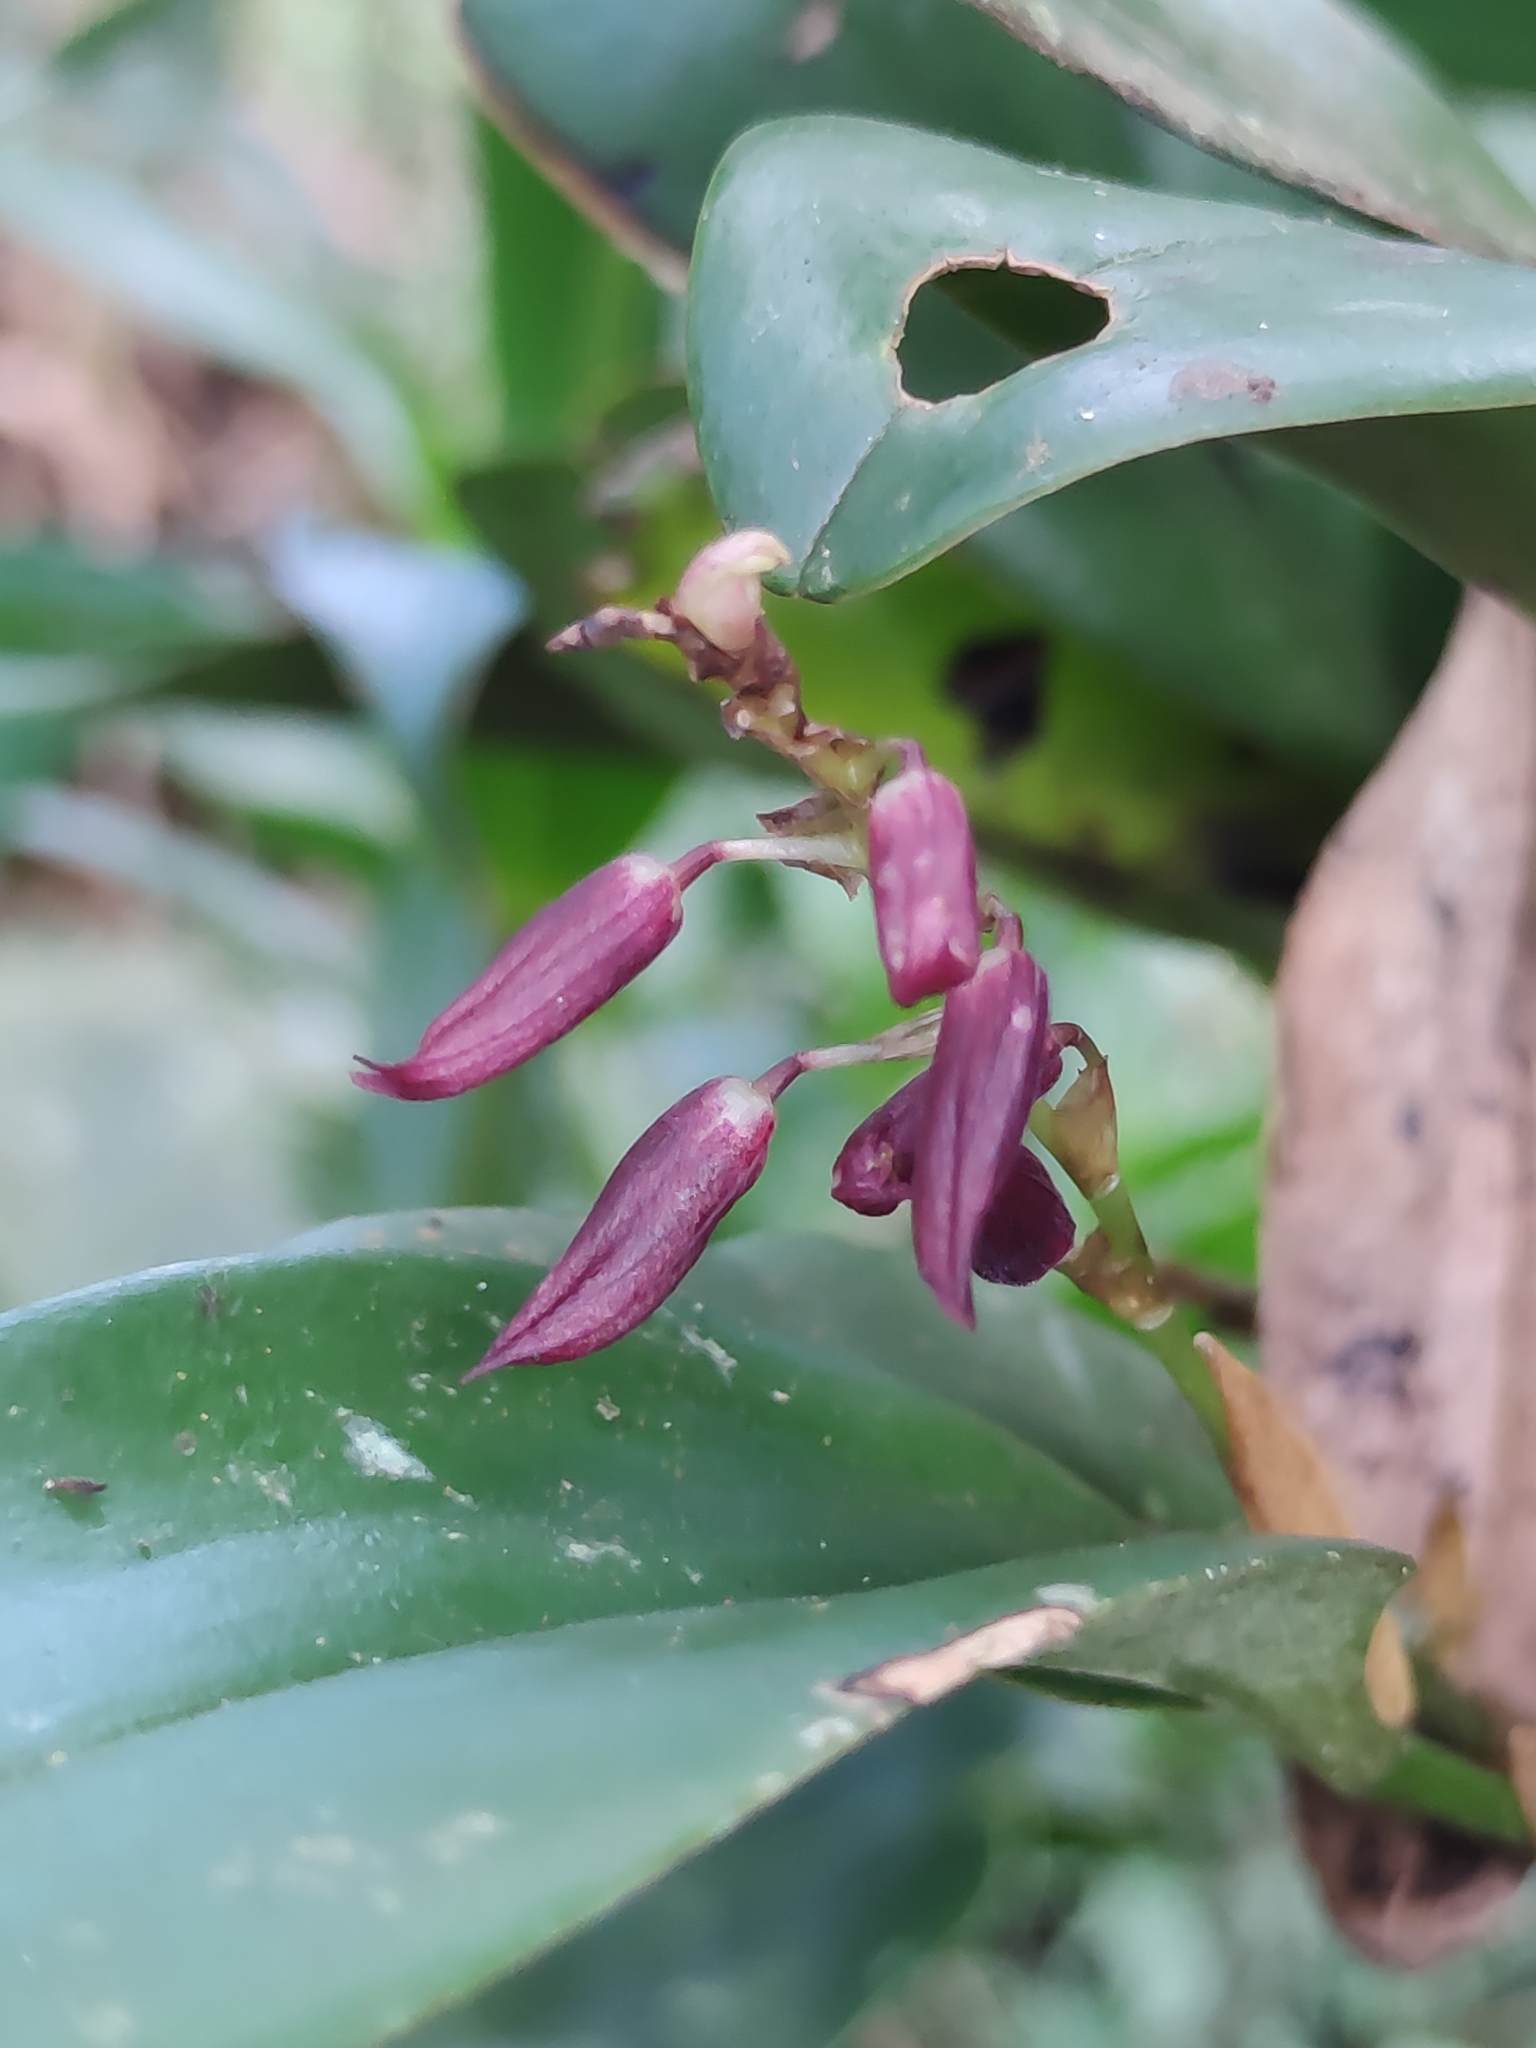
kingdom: Plantae
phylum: Tracheophyta
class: Liliopsida
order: Asparagales
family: Orchidaceae
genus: Stelis
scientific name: Stelis megachlamys
